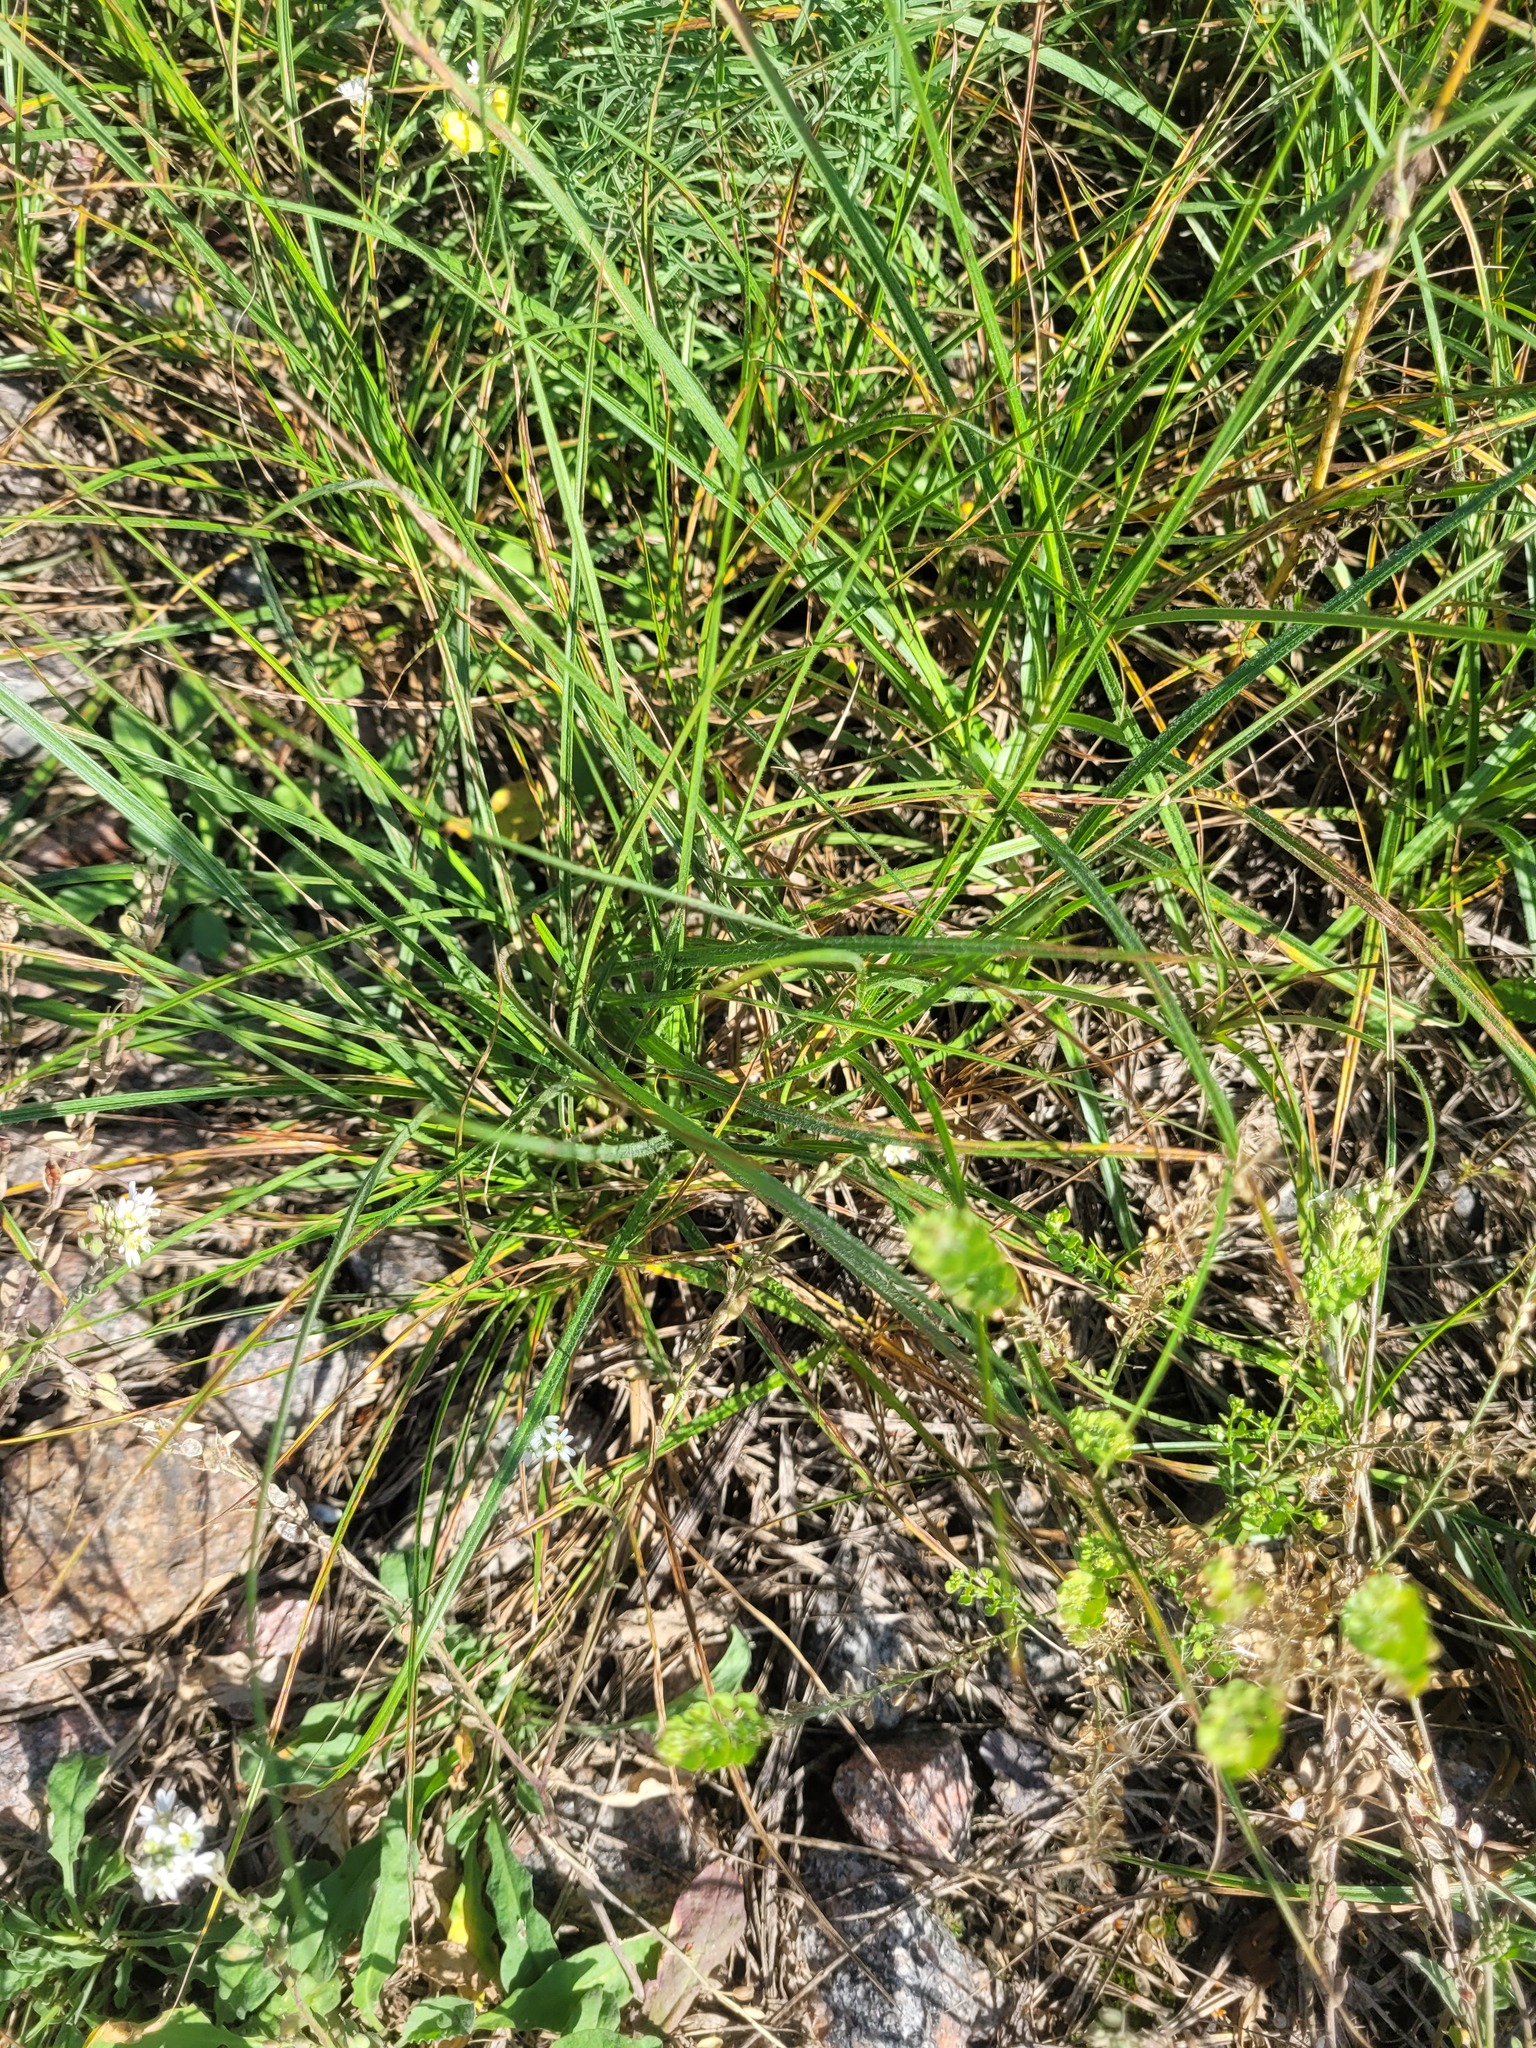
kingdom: Plantae
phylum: Tracheophyta
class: Liliopsida
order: Poales
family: Cyperaceae
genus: Carex
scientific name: Carex hirta
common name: Hairy sedge
